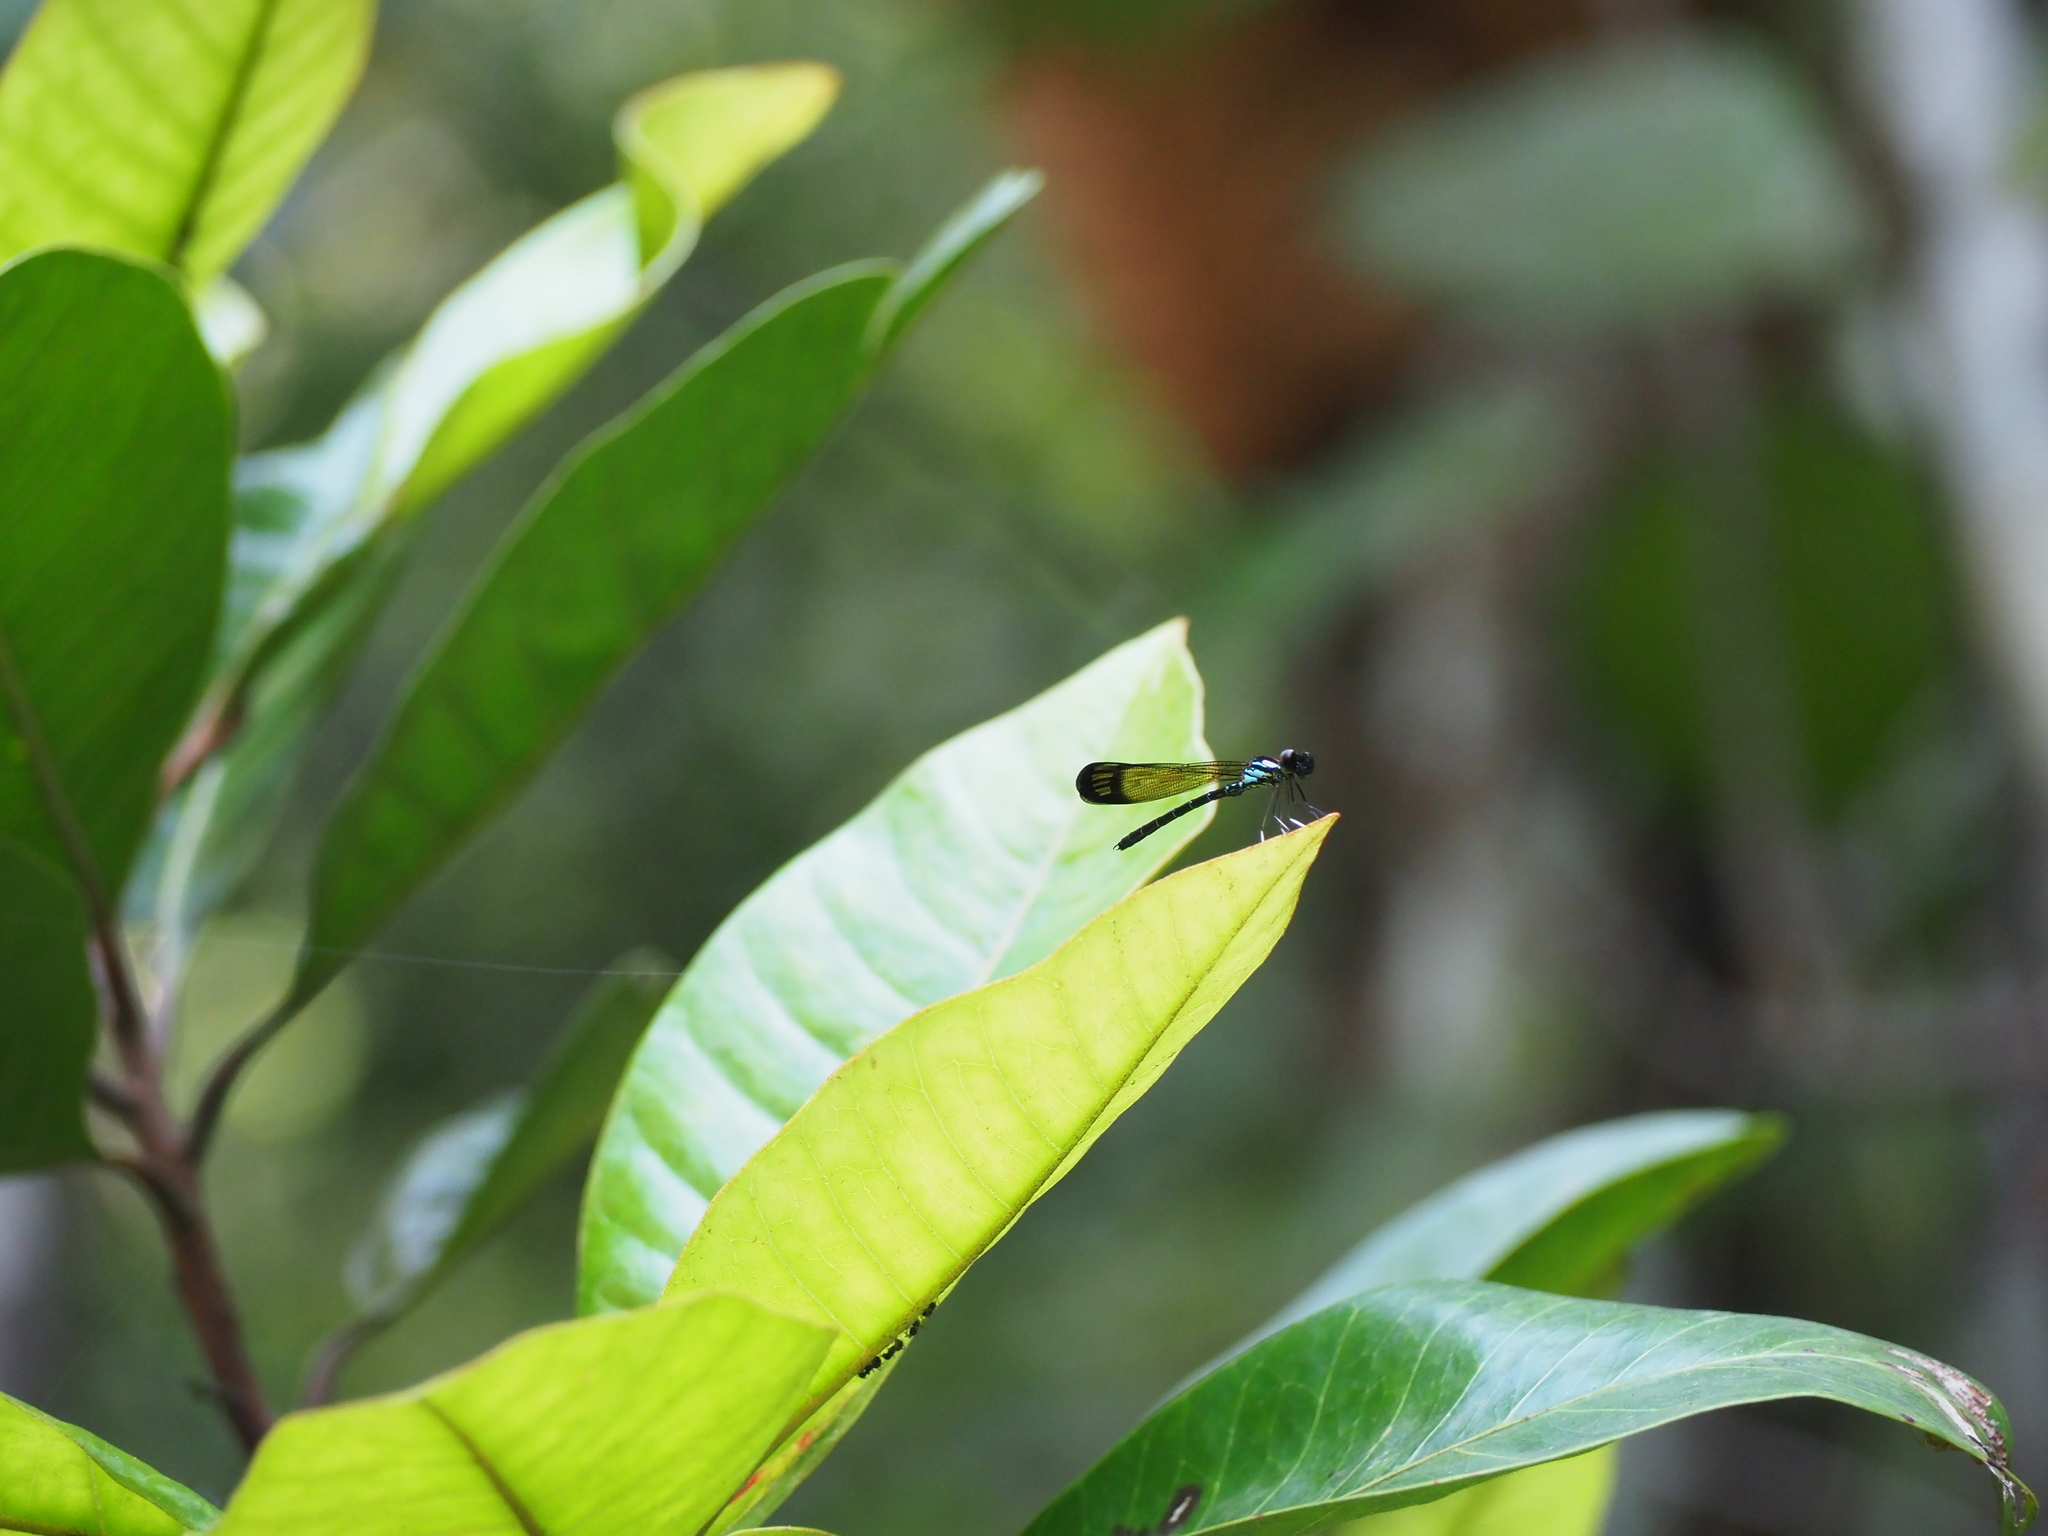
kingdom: Animalia
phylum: Arthropoda
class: Insecta
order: Odonata
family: Chlorocyphidae
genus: Heliocypha
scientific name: Heliocypha biforata
